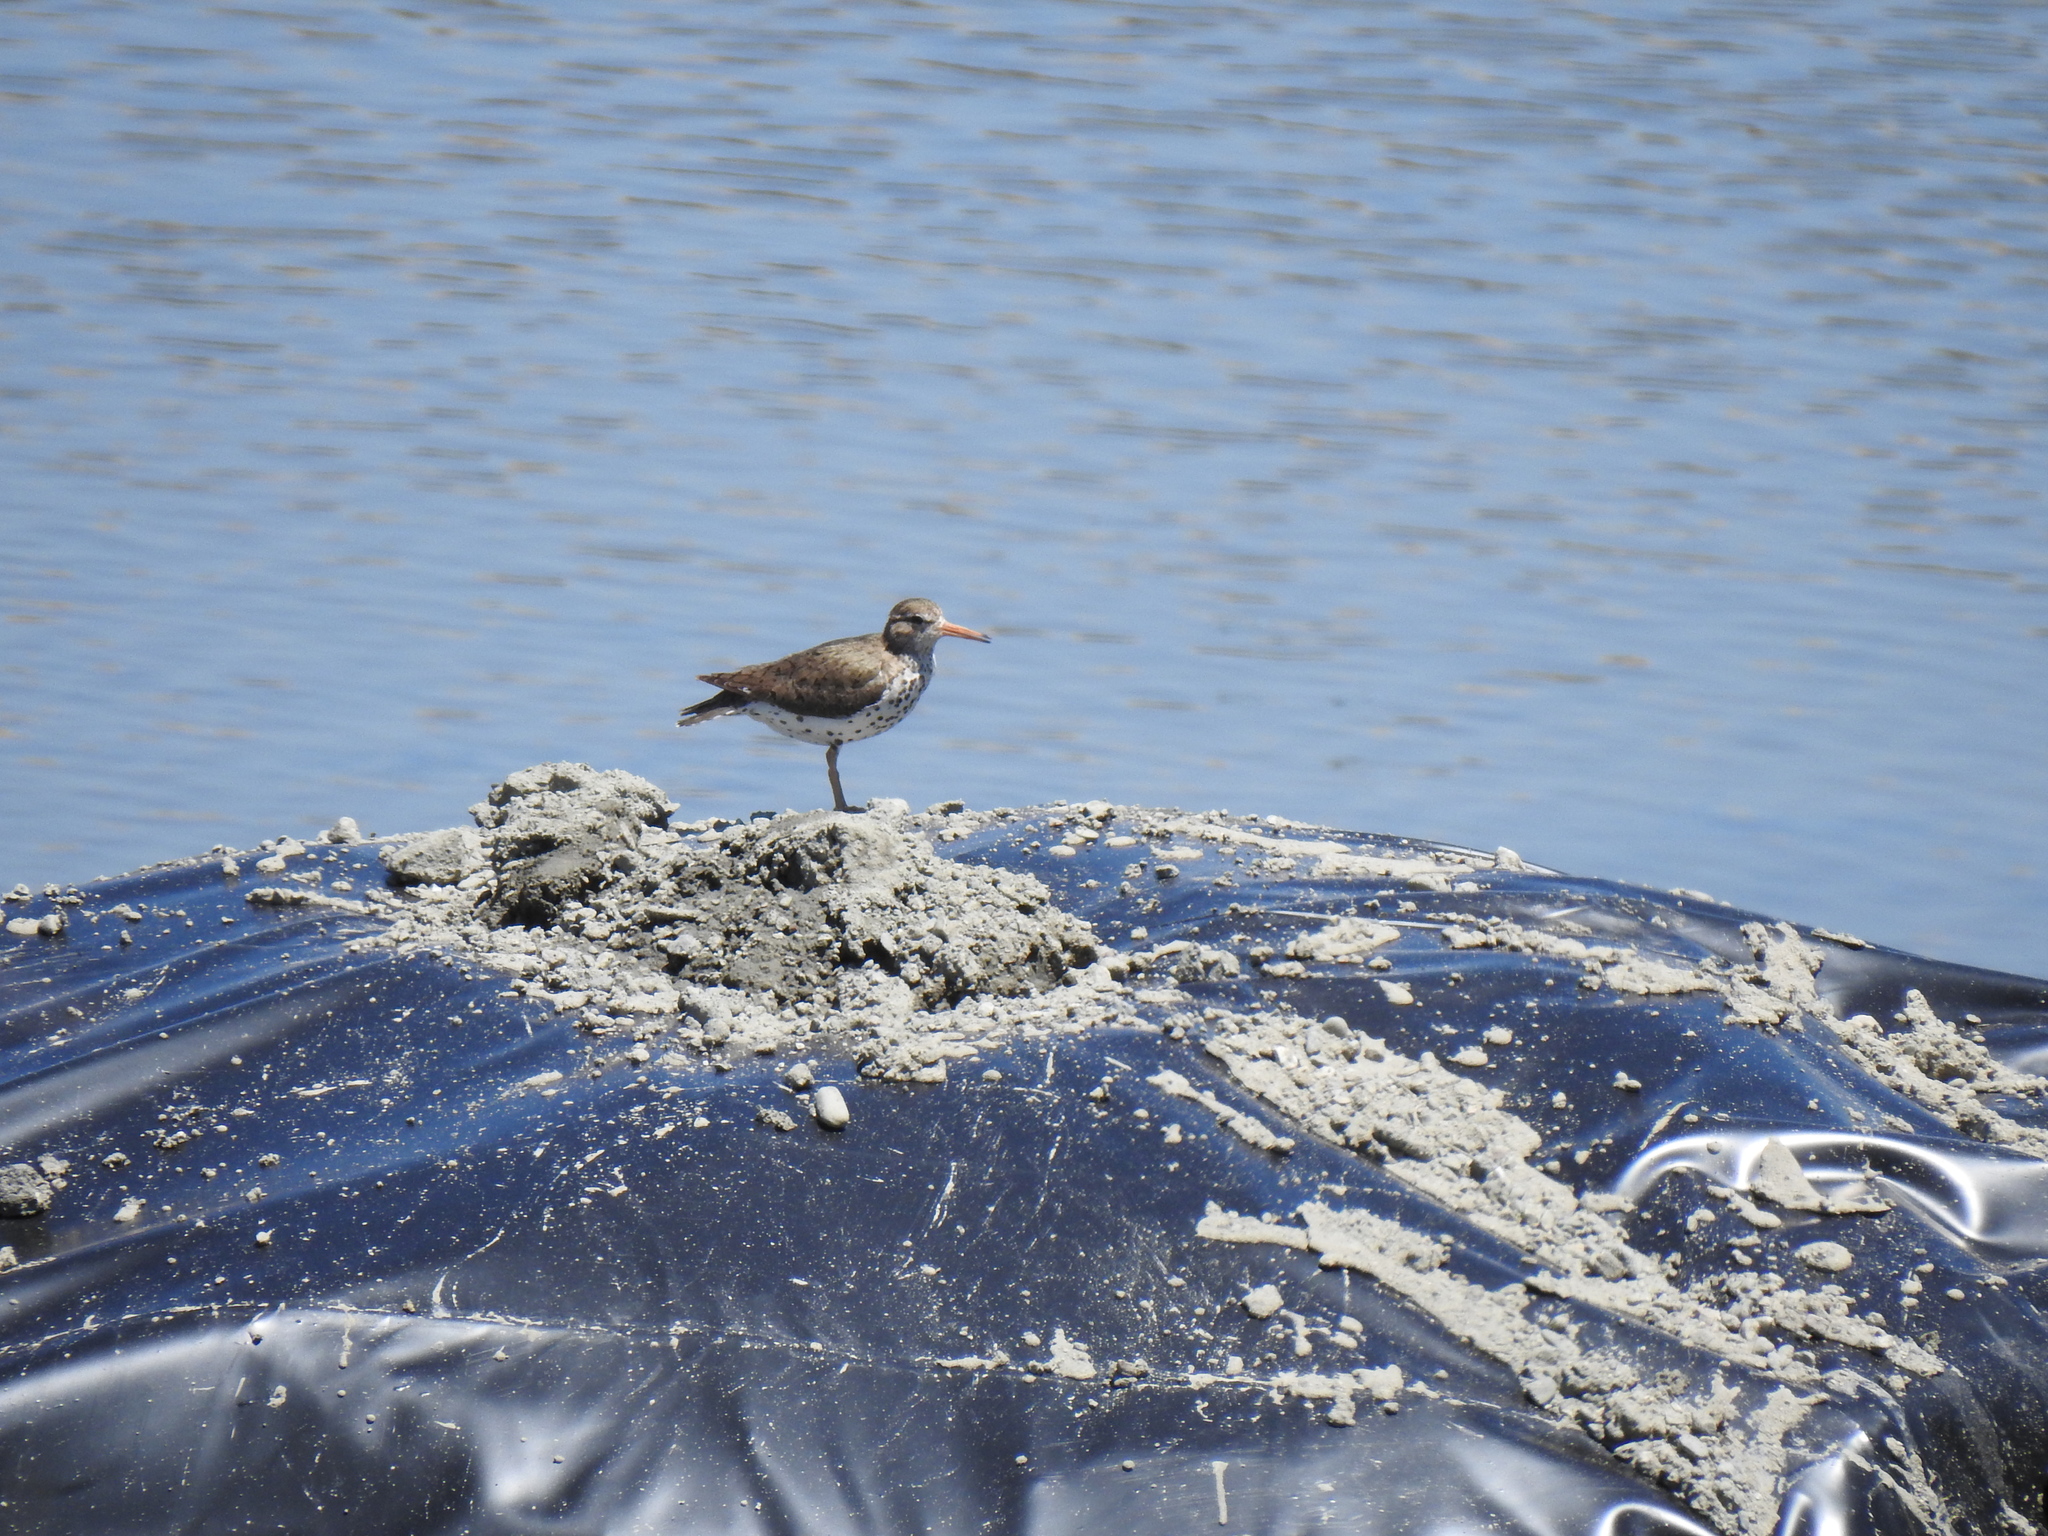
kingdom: Animalia
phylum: Chordata
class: Aves
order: Charadriiformes
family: Scolopacidae
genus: Actitis
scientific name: Actitis macularius
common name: Spotted sandpiper
